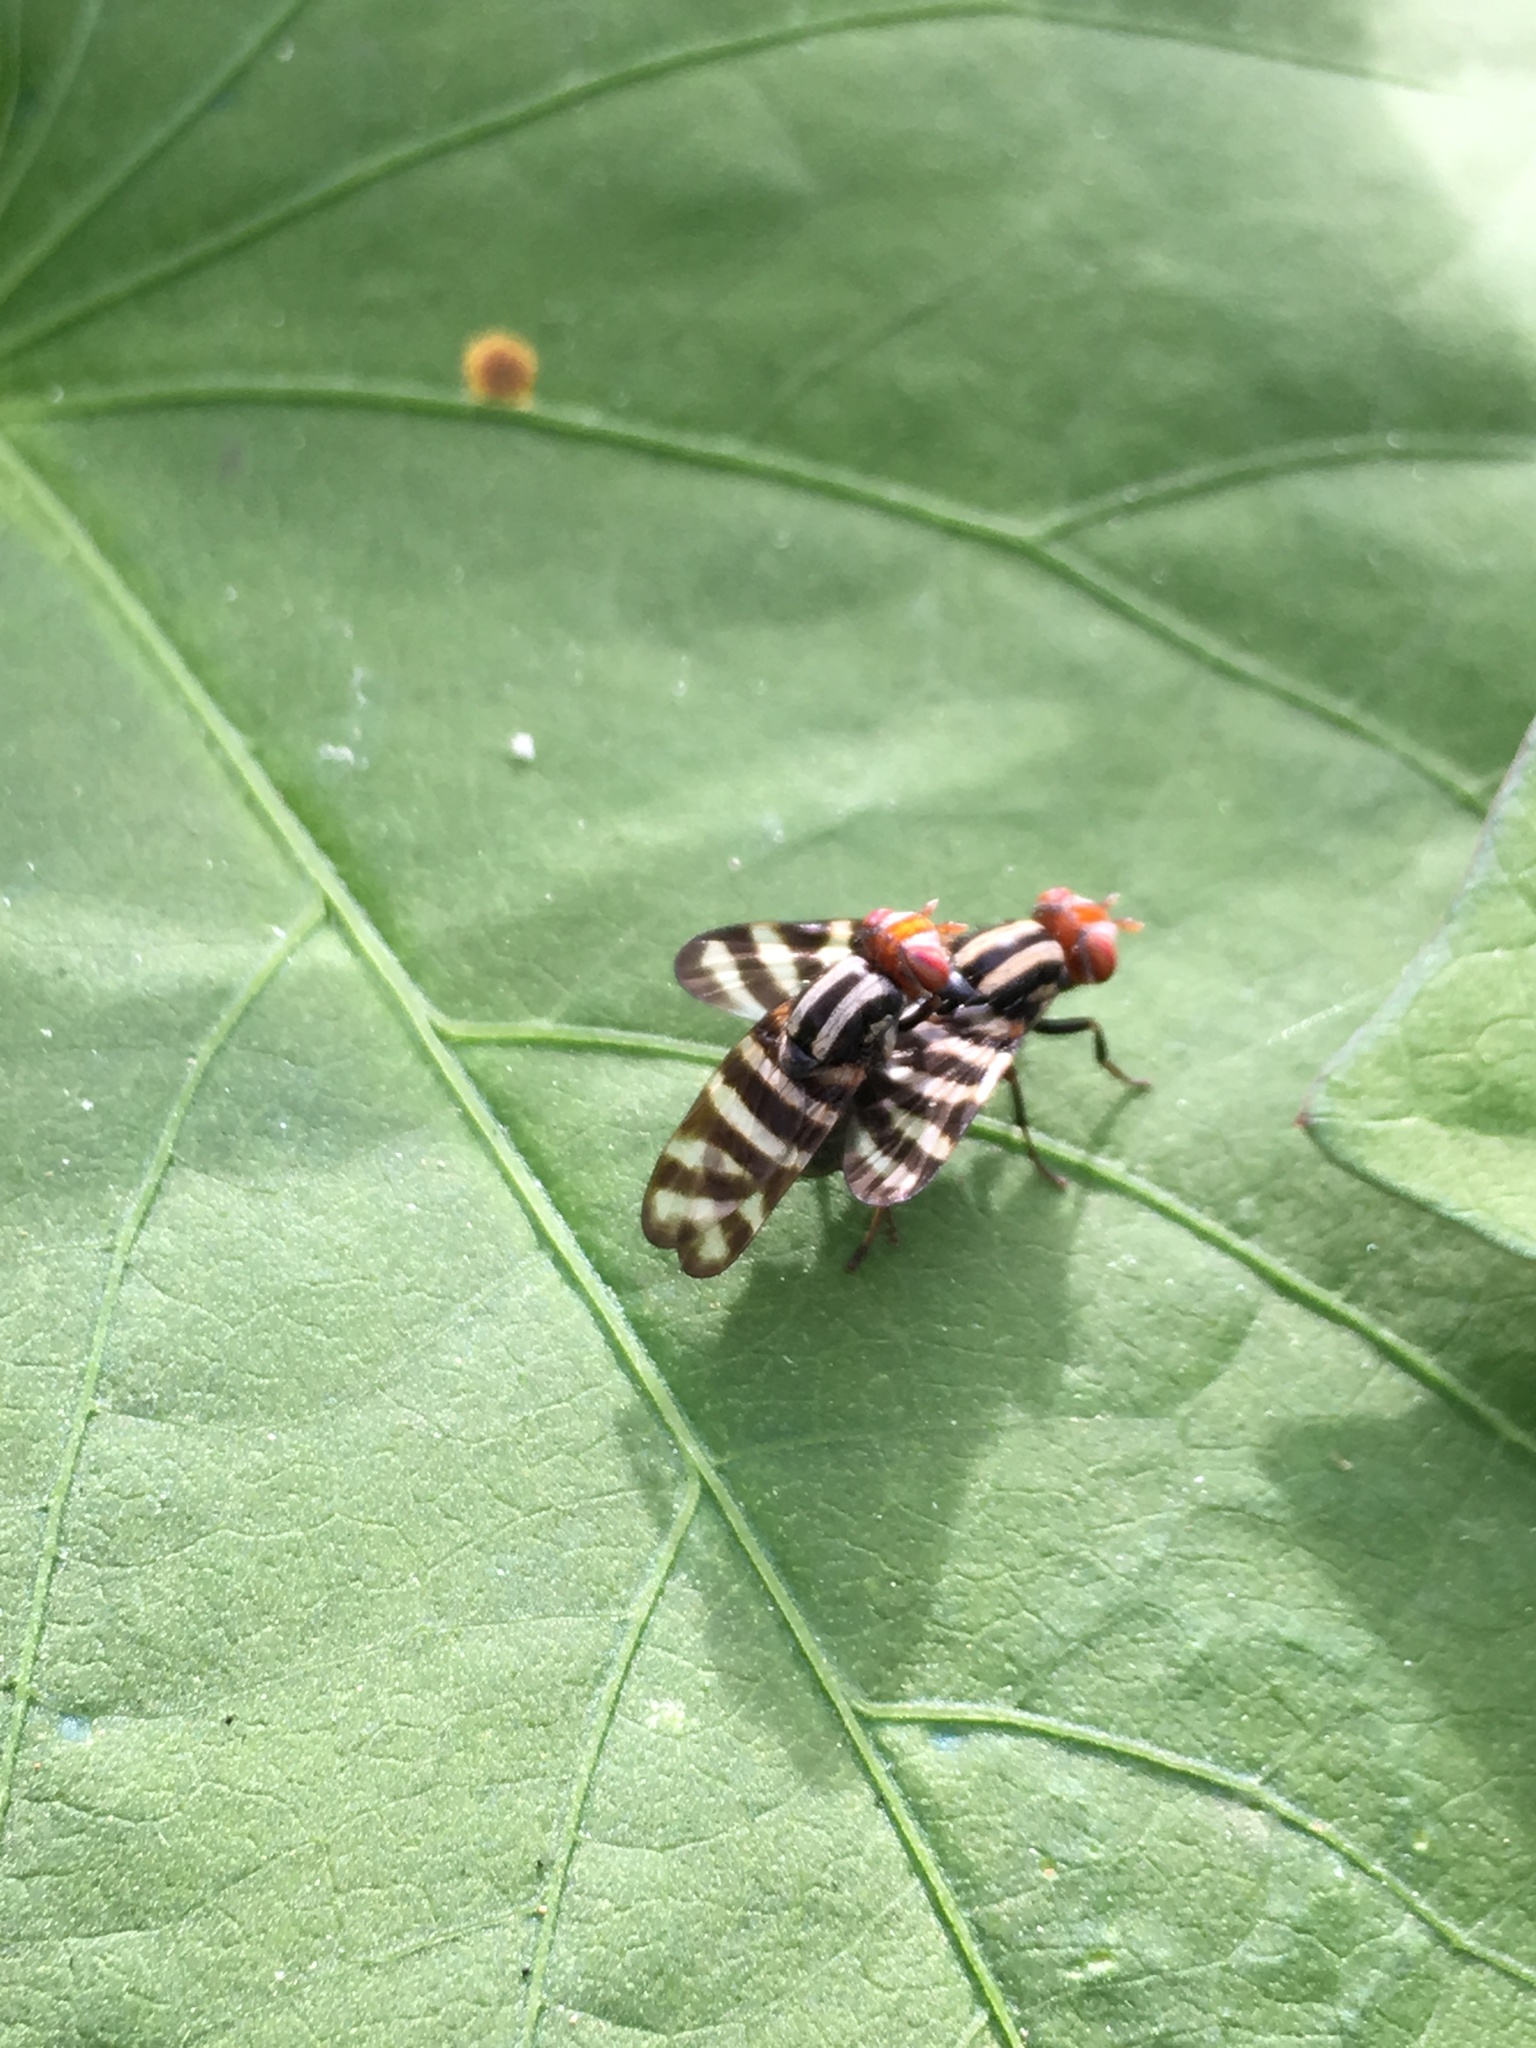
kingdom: Animalia
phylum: Arthropoda
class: Insecta
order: Diptera
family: Ulidiidae
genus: Pterotaenia
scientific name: Pterotaenia fasciata
